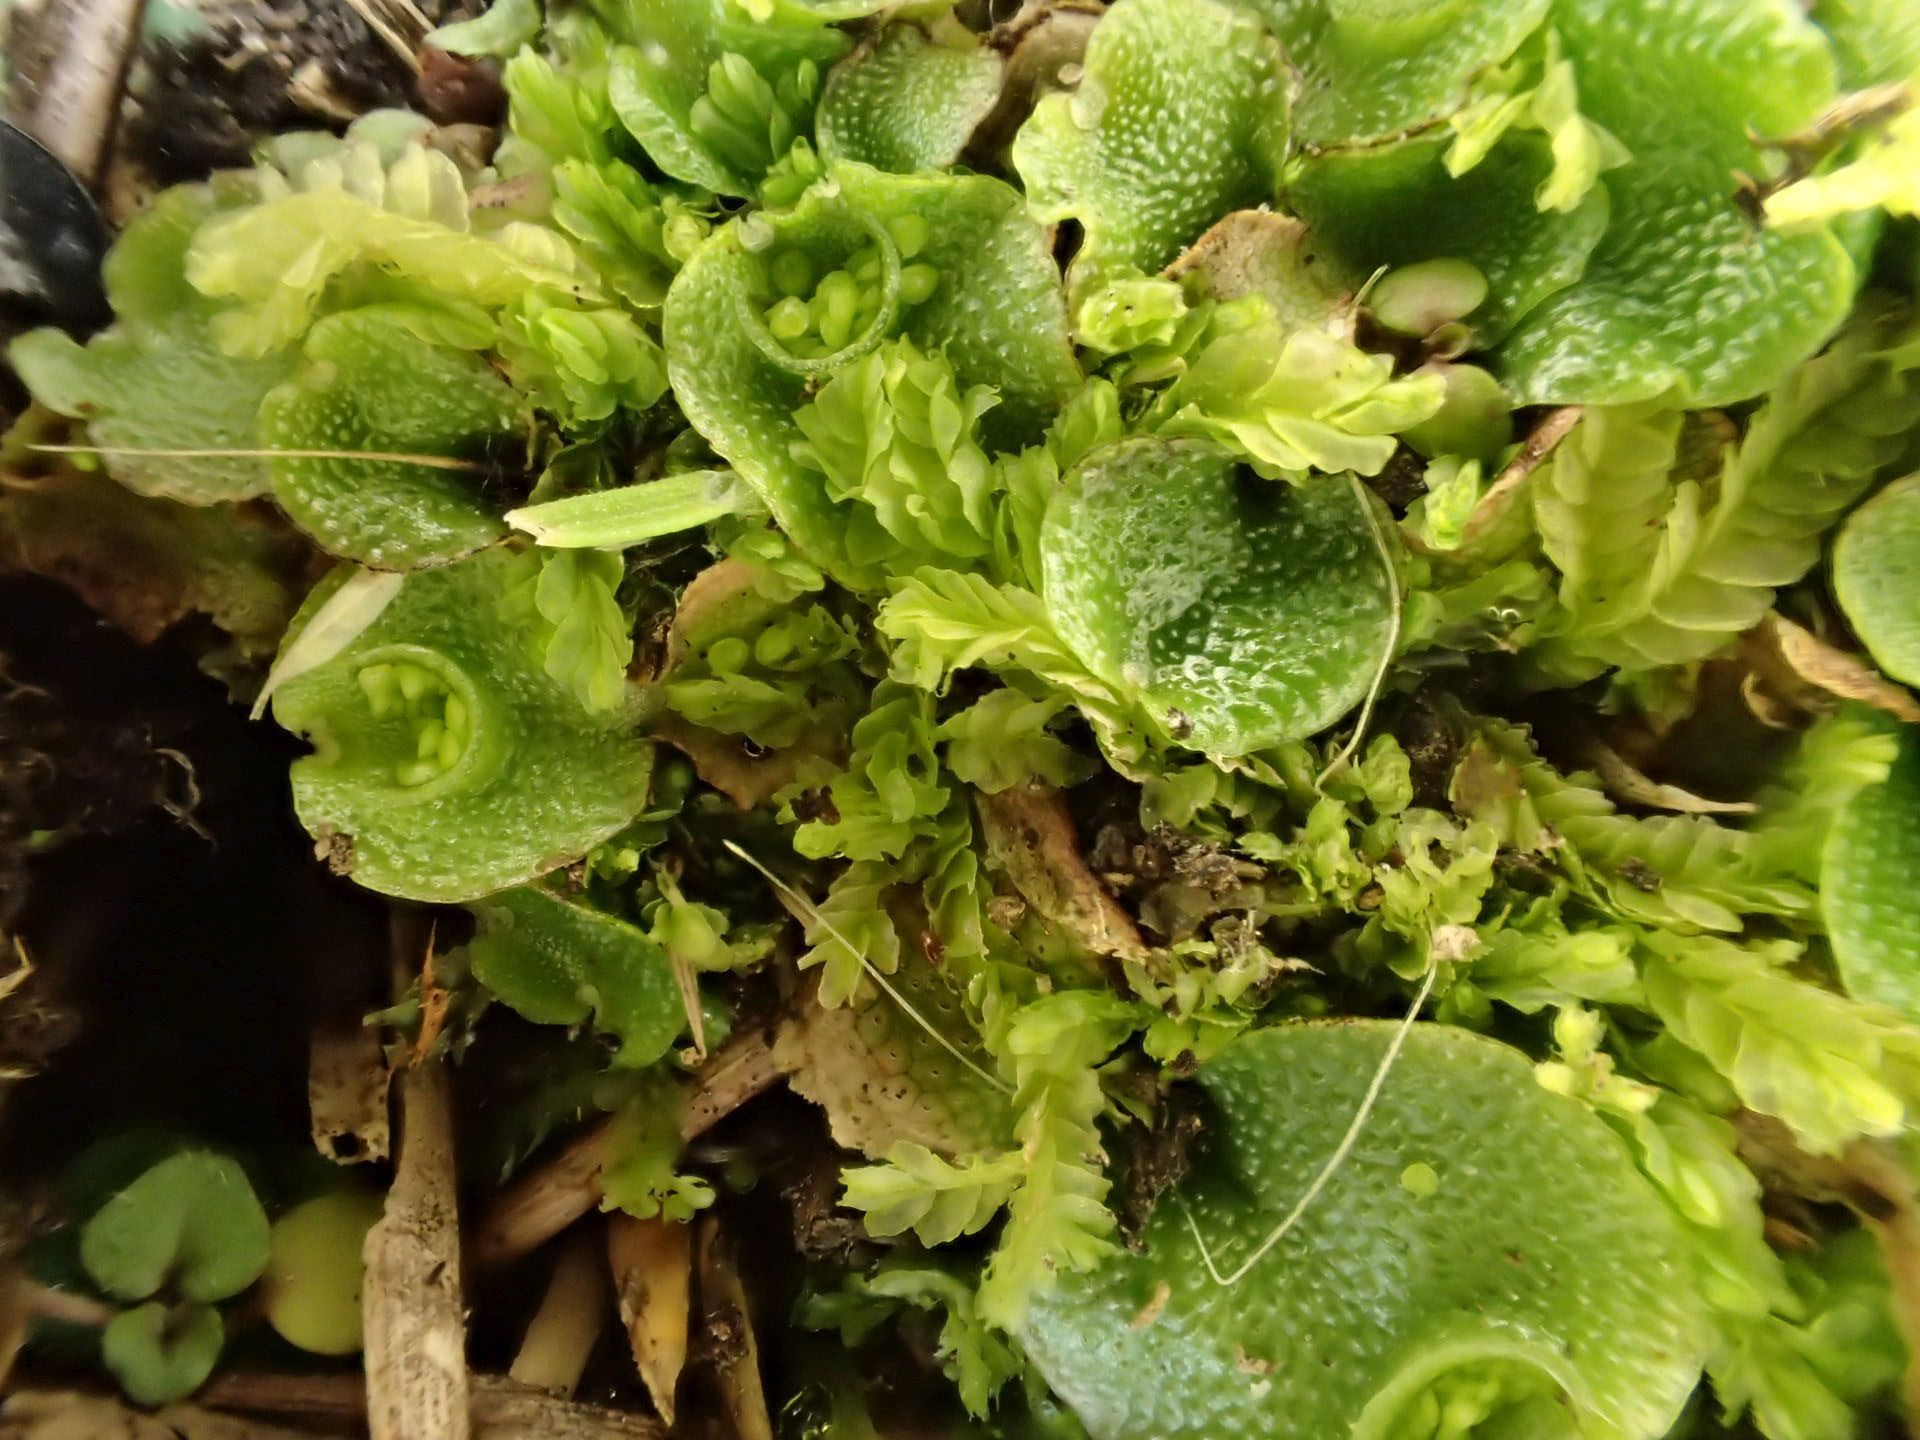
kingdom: Plantae
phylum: Marchantiophyta
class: Marchantiopsida
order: Lunulariales
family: Lunulariaceae
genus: Lunularia
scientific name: Lunularia cruciata
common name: Crescent-cup liverwort
